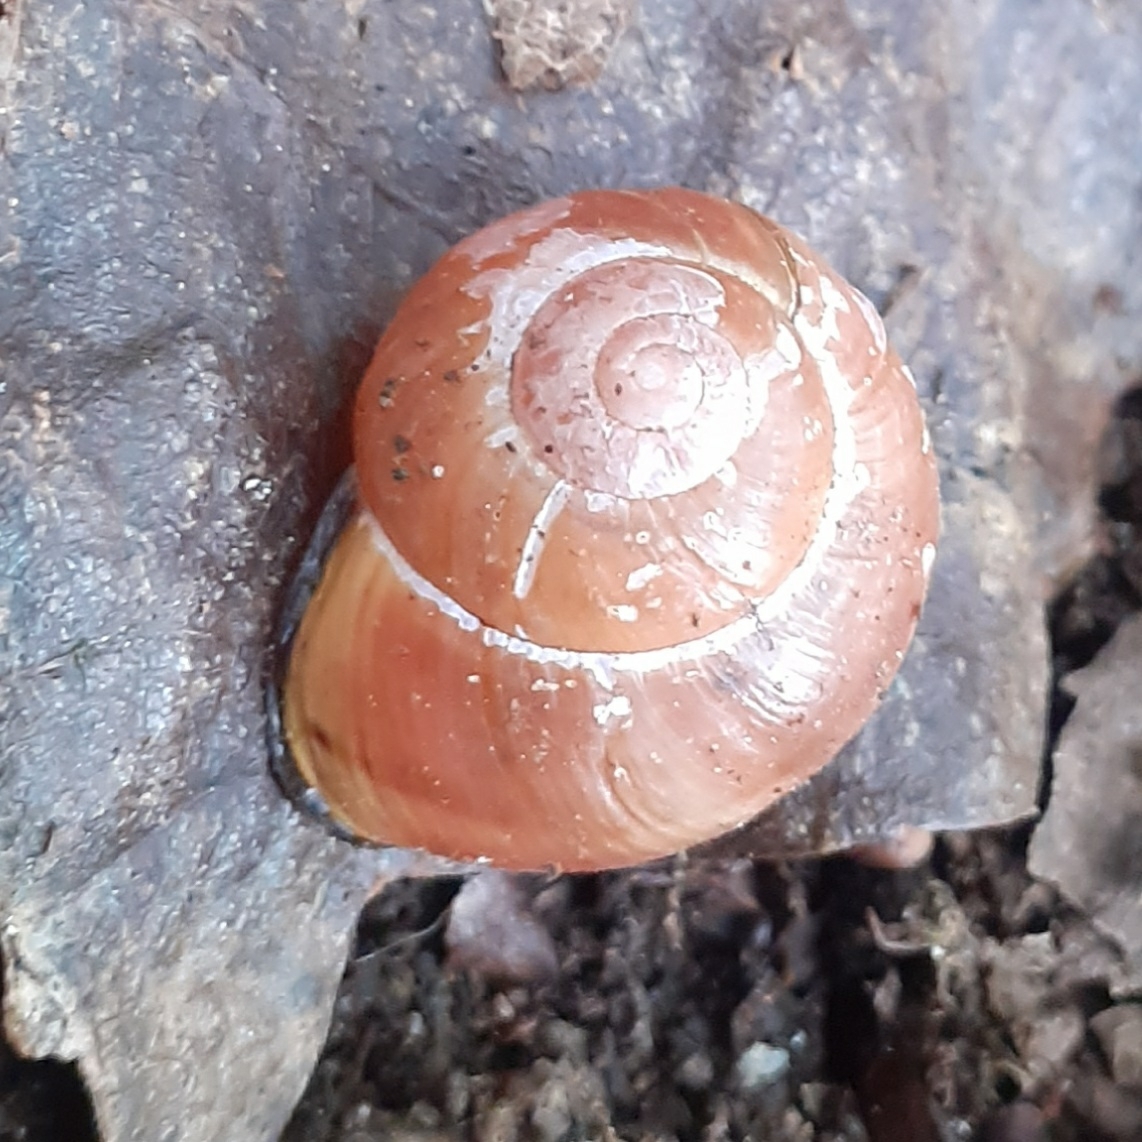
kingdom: Animalia
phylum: Mollusca
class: Gastropoda
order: Stylommatophora
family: Helicidae
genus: Cepaea
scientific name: Cepaea nemoralis
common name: Grovesnail
